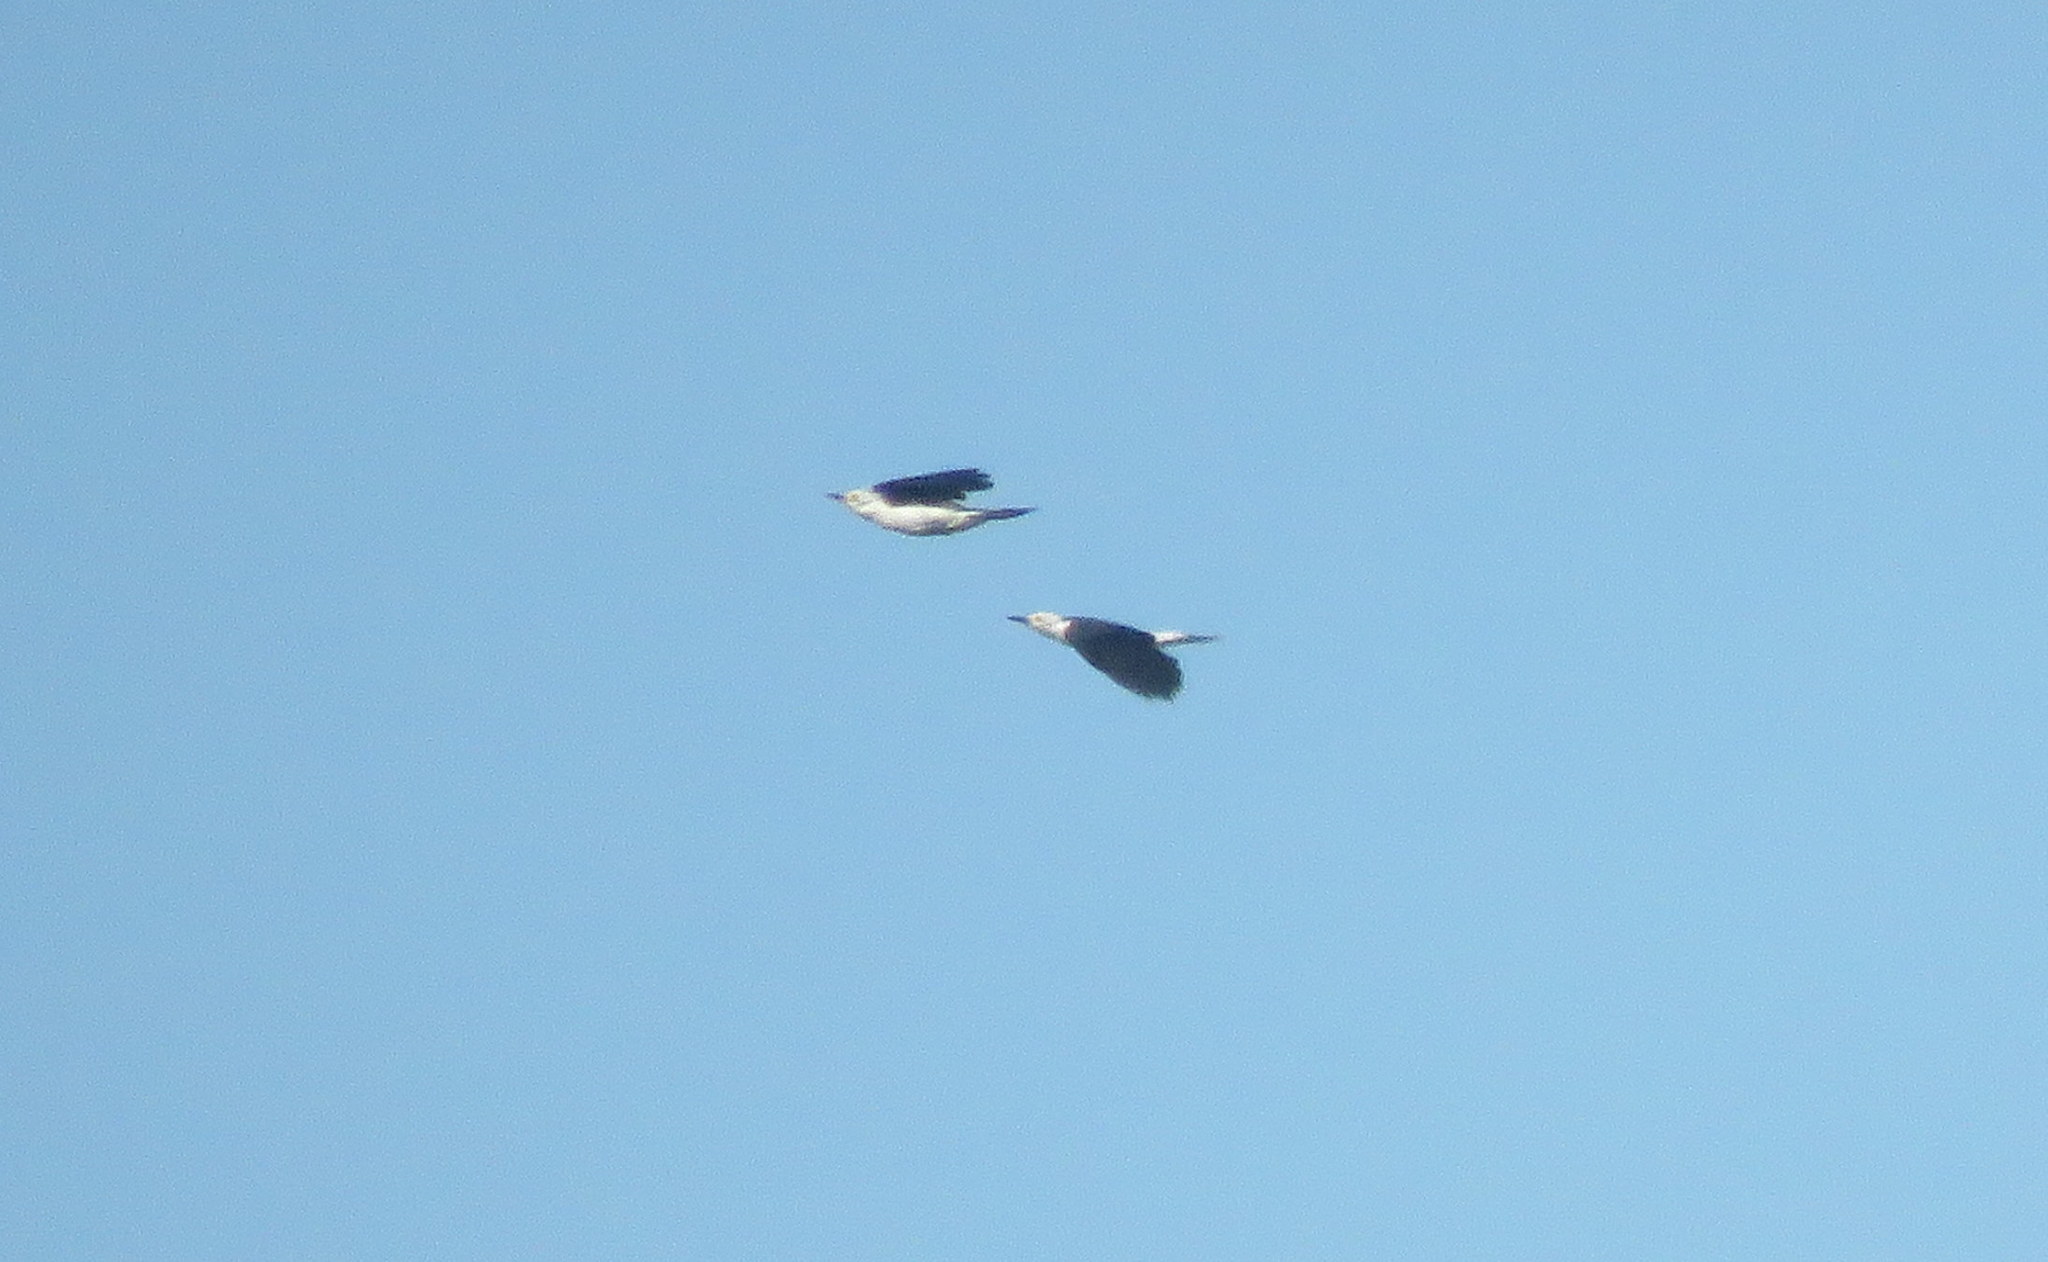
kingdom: Animalia
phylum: Chordata
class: Aves
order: Piciformes
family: Picidae
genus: Melanerpes
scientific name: Melanerpes candidus
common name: White woodpecker
